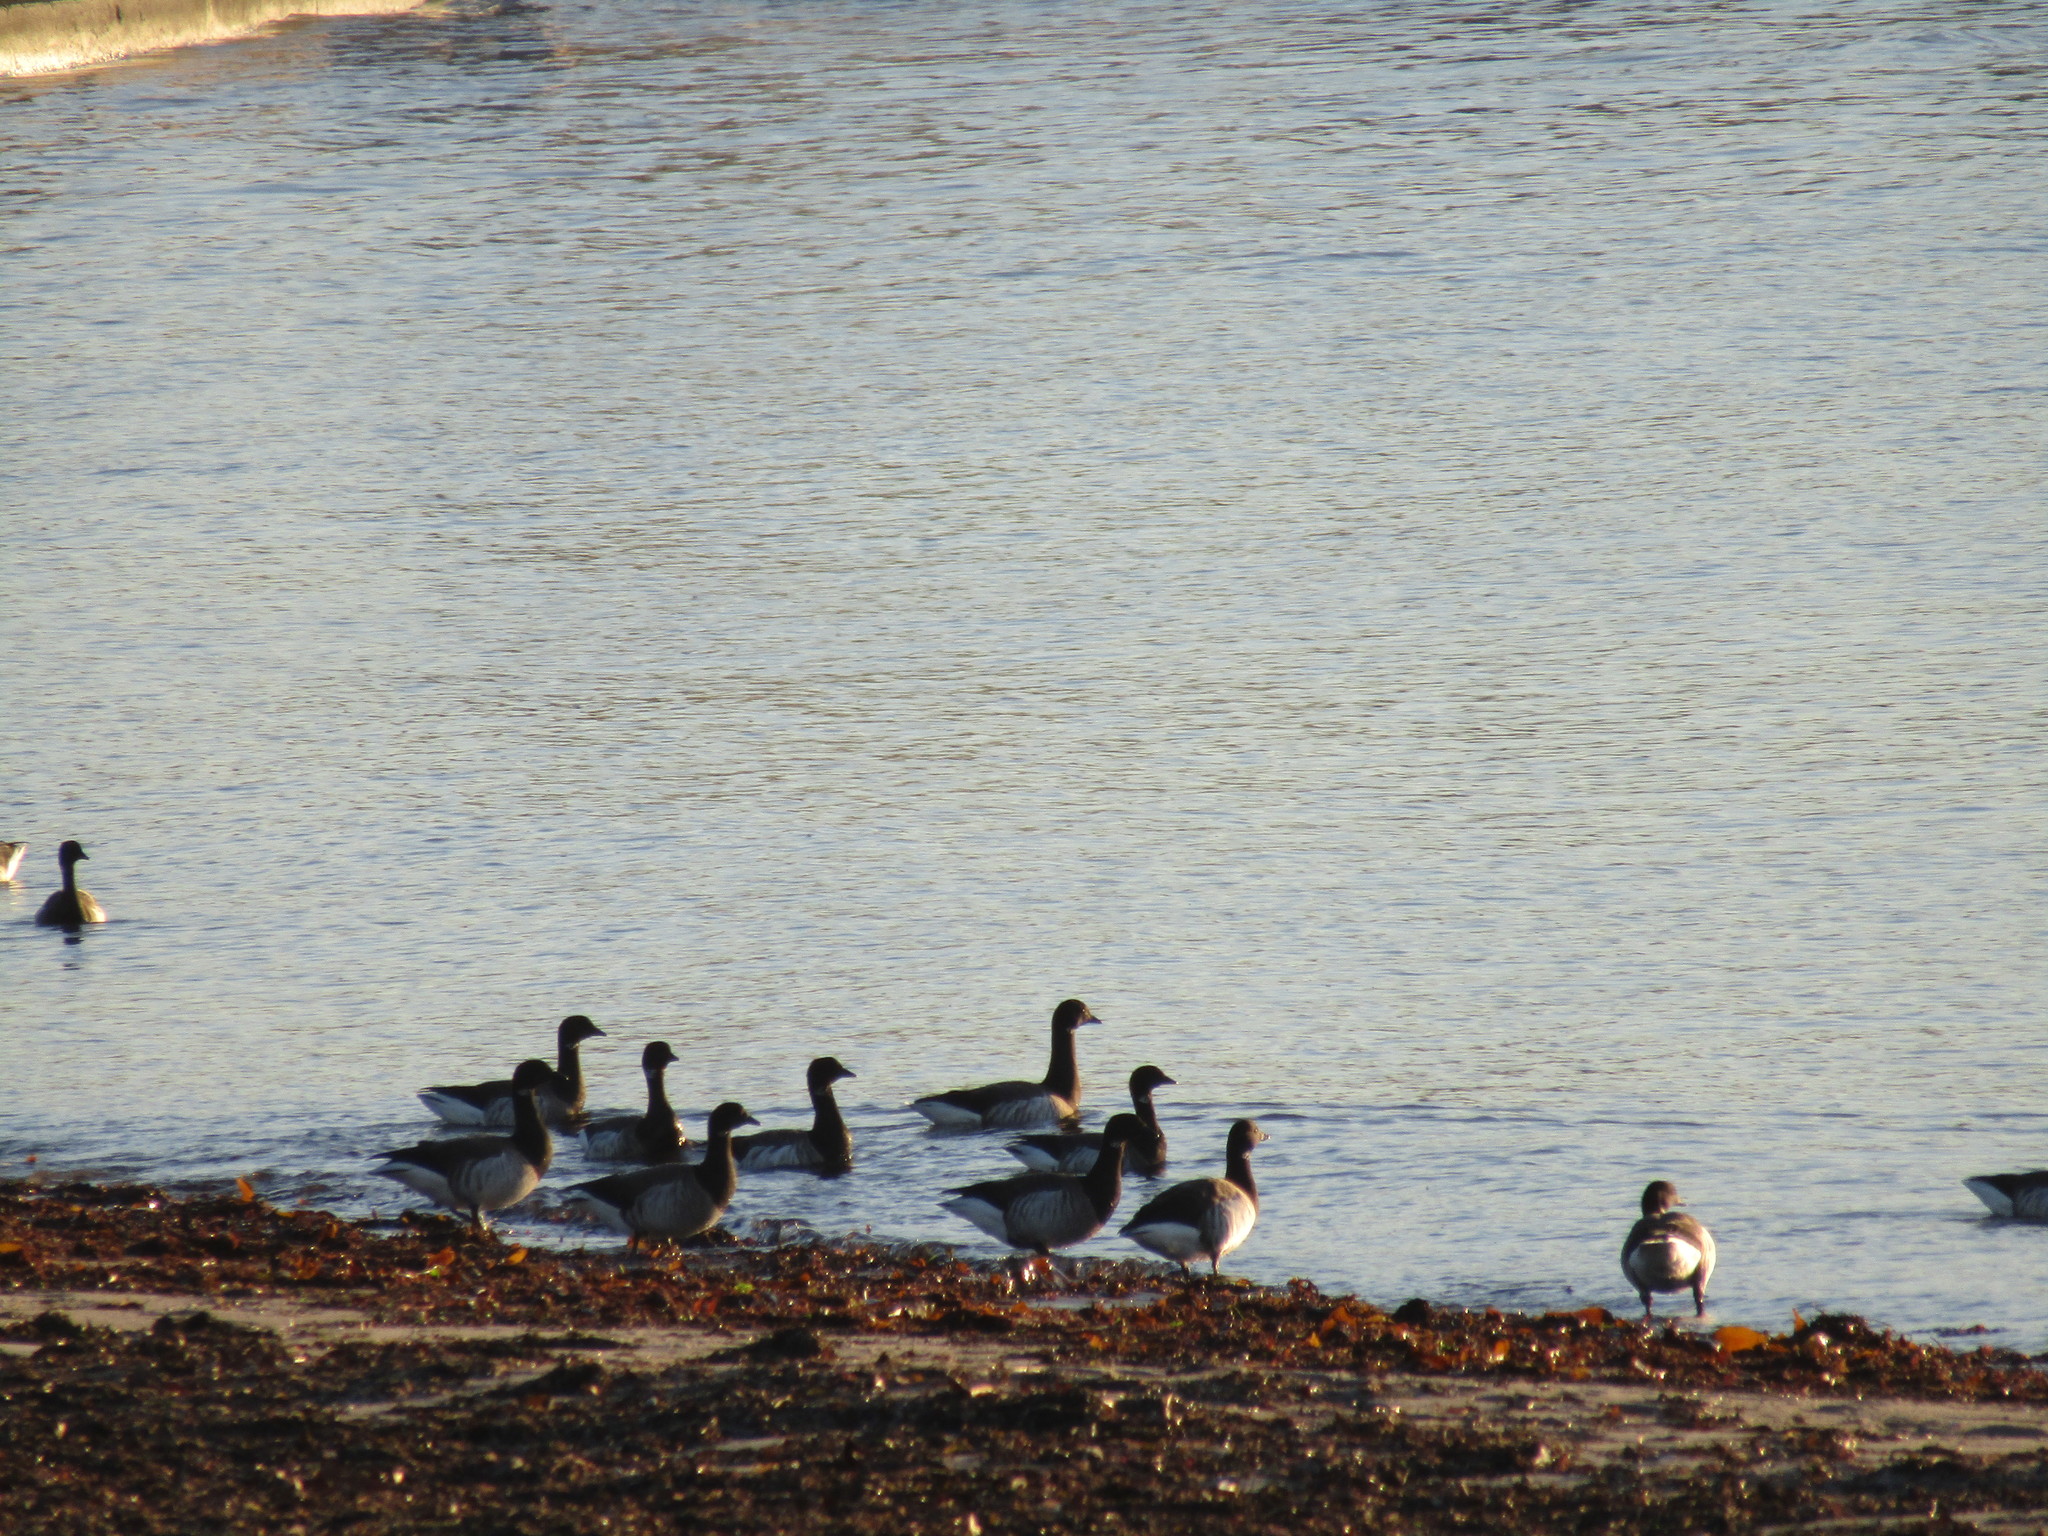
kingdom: Animalia
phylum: Chordata
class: Aves
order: Anseriformes
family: Anatidae
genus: Branta
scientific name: Branta bernicla
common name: Brant goose
